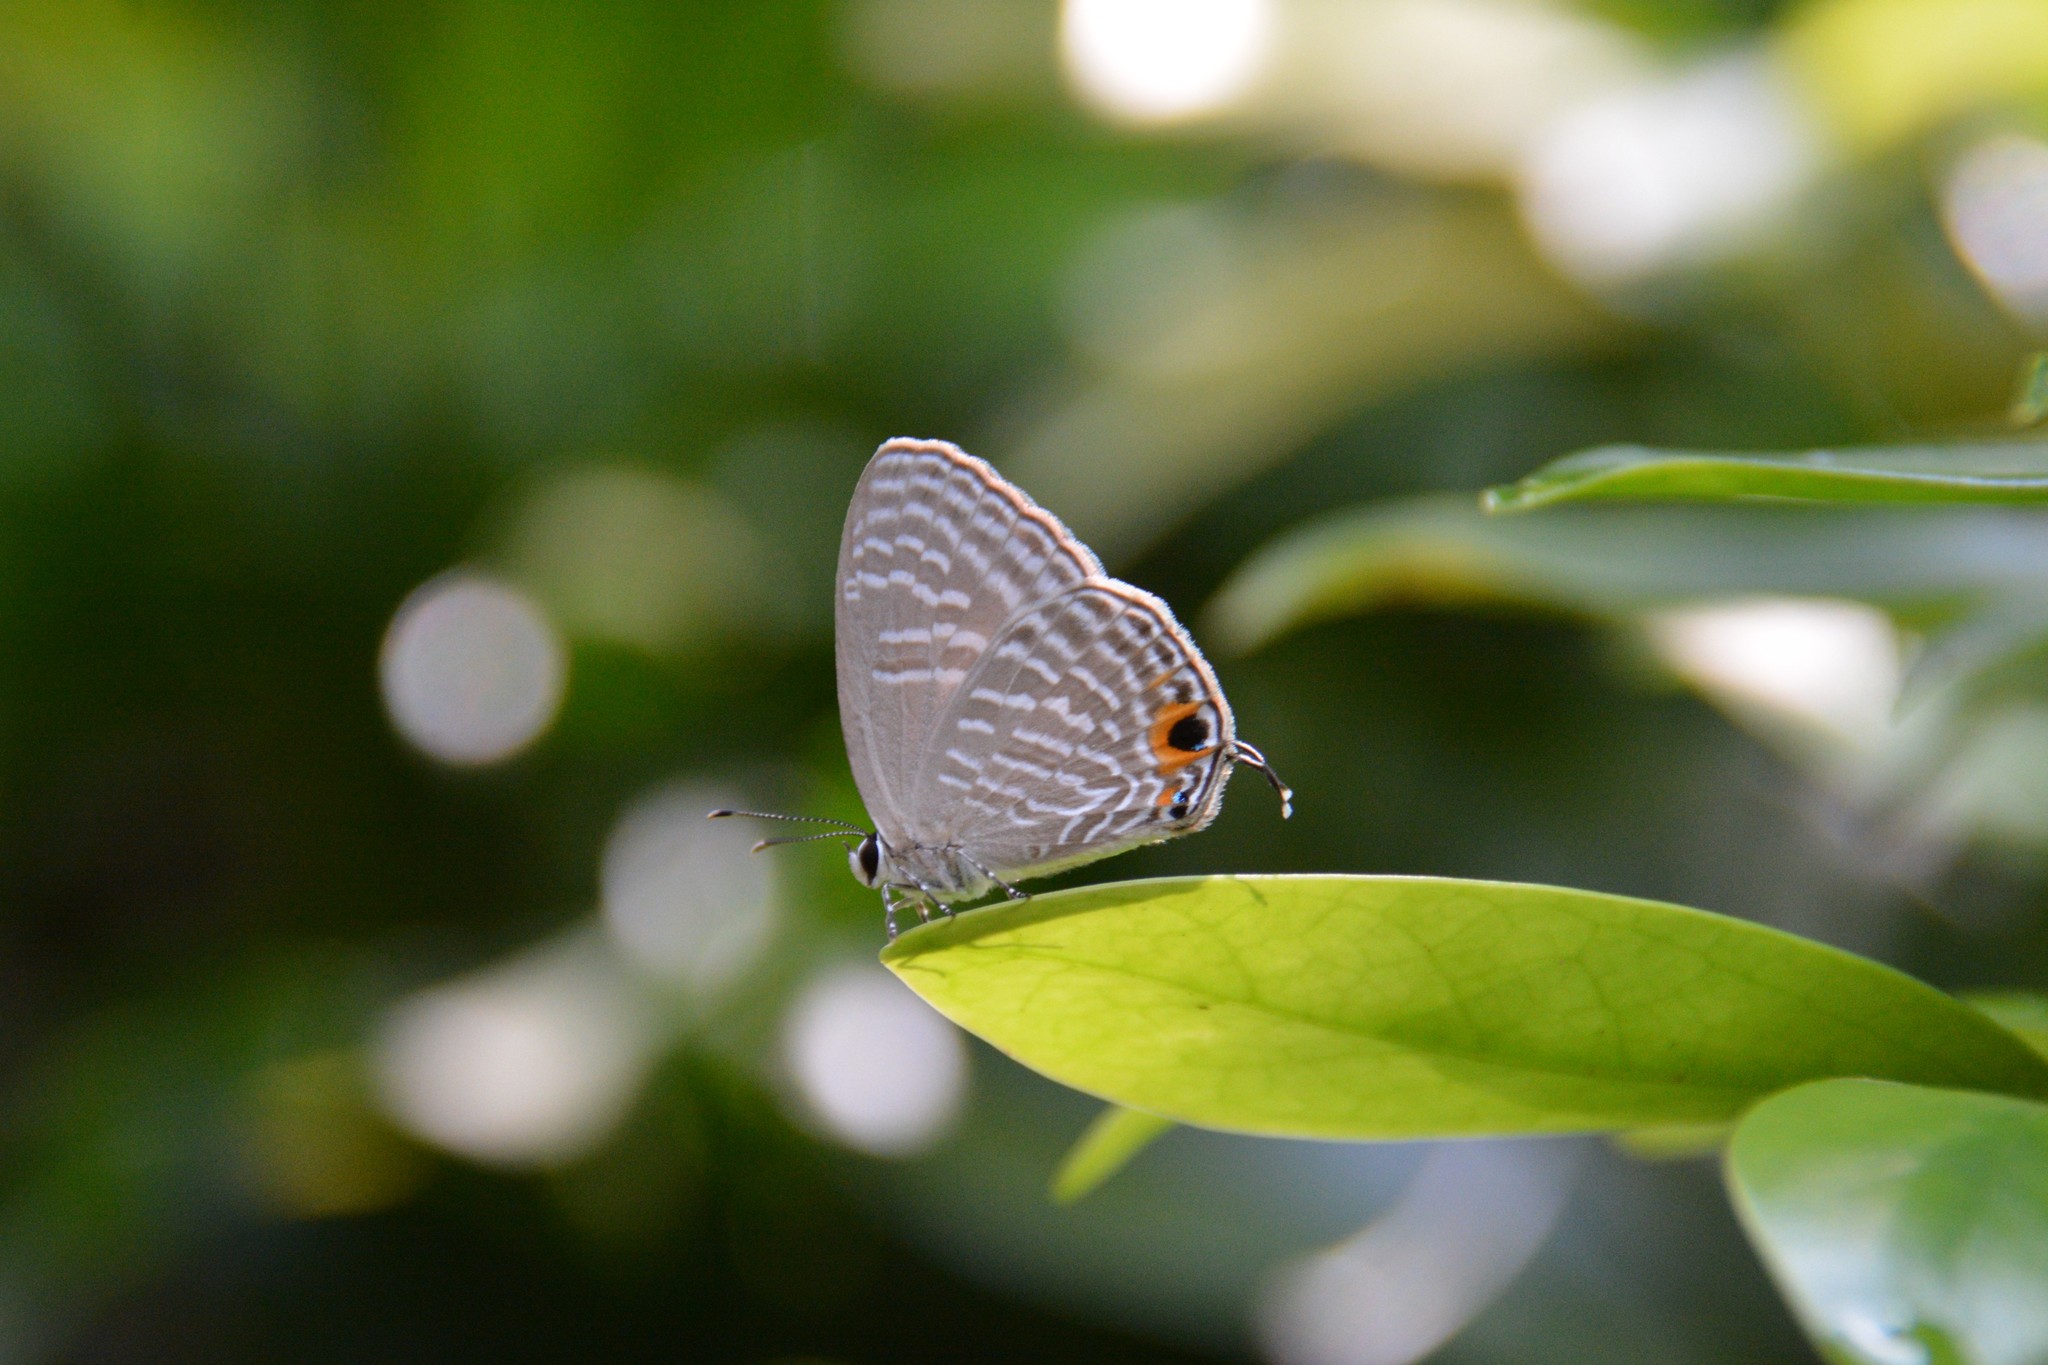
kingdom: Animalia
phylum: Arthropoda
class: Insecta
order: Lepidoptera
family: Lycaenidae
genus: Jamides
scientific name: Jamides alecto
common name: Metallic cerulean
